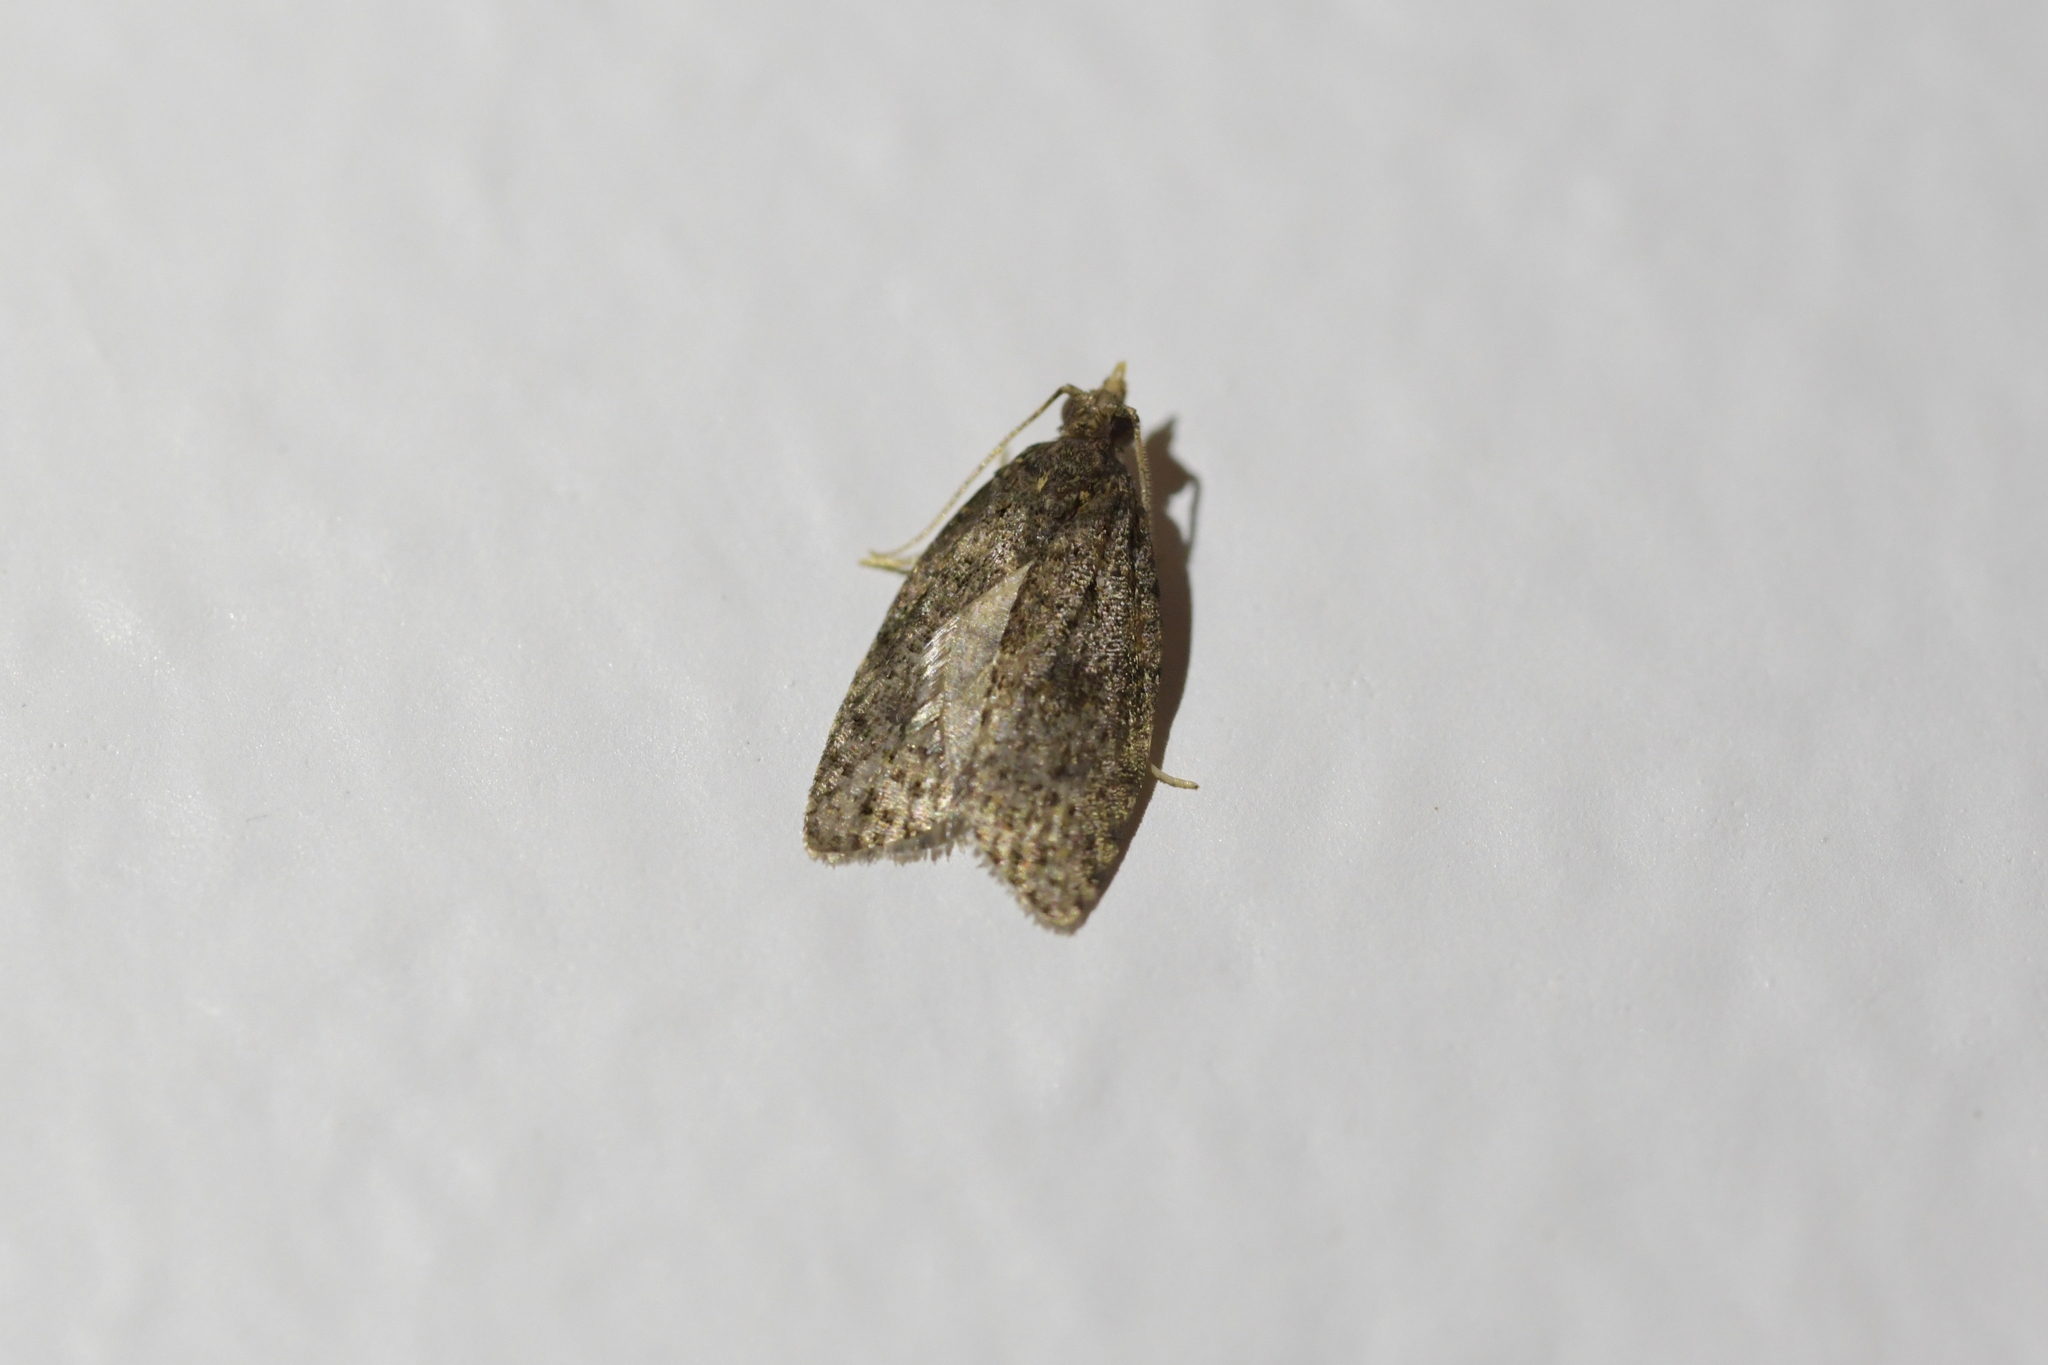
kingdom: Animalia
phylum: Arthropoda
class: Insecta
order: Lepidoptera
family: Tortricidae
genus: Capua
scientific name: Capua intractana
